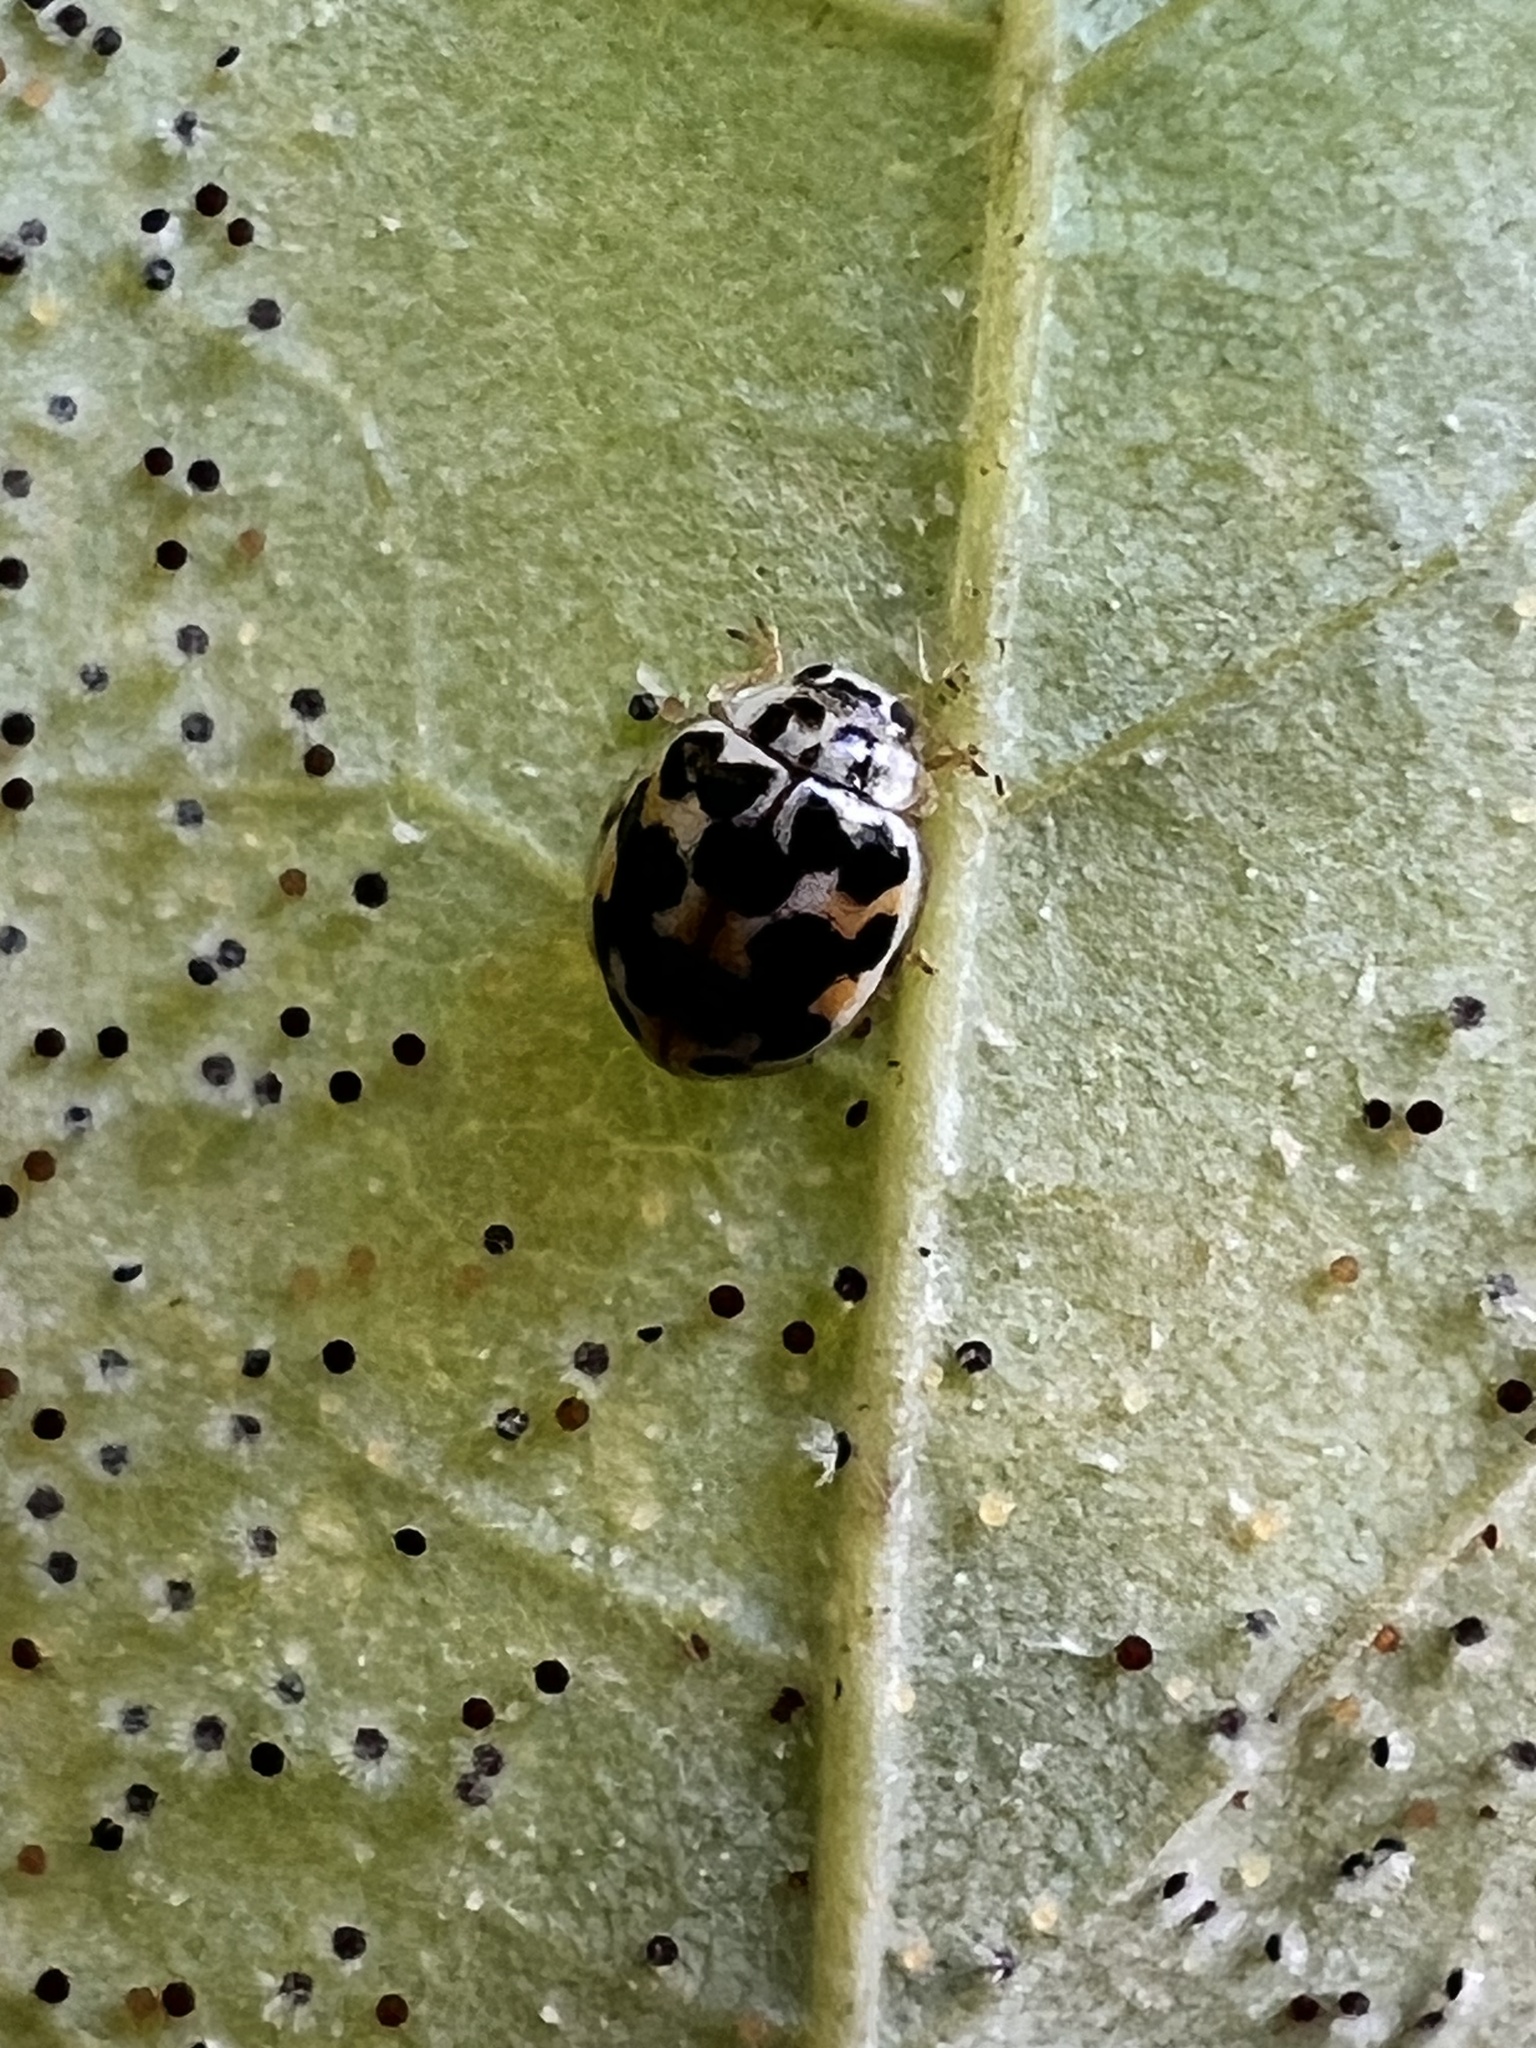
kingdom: Animalia
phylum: Arthropoda
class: Insecta
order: Coleoptera
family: Coccinellidae
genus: Psyllobora
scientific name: Psyllobora vigintimaculata
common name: Ladybird beetle
